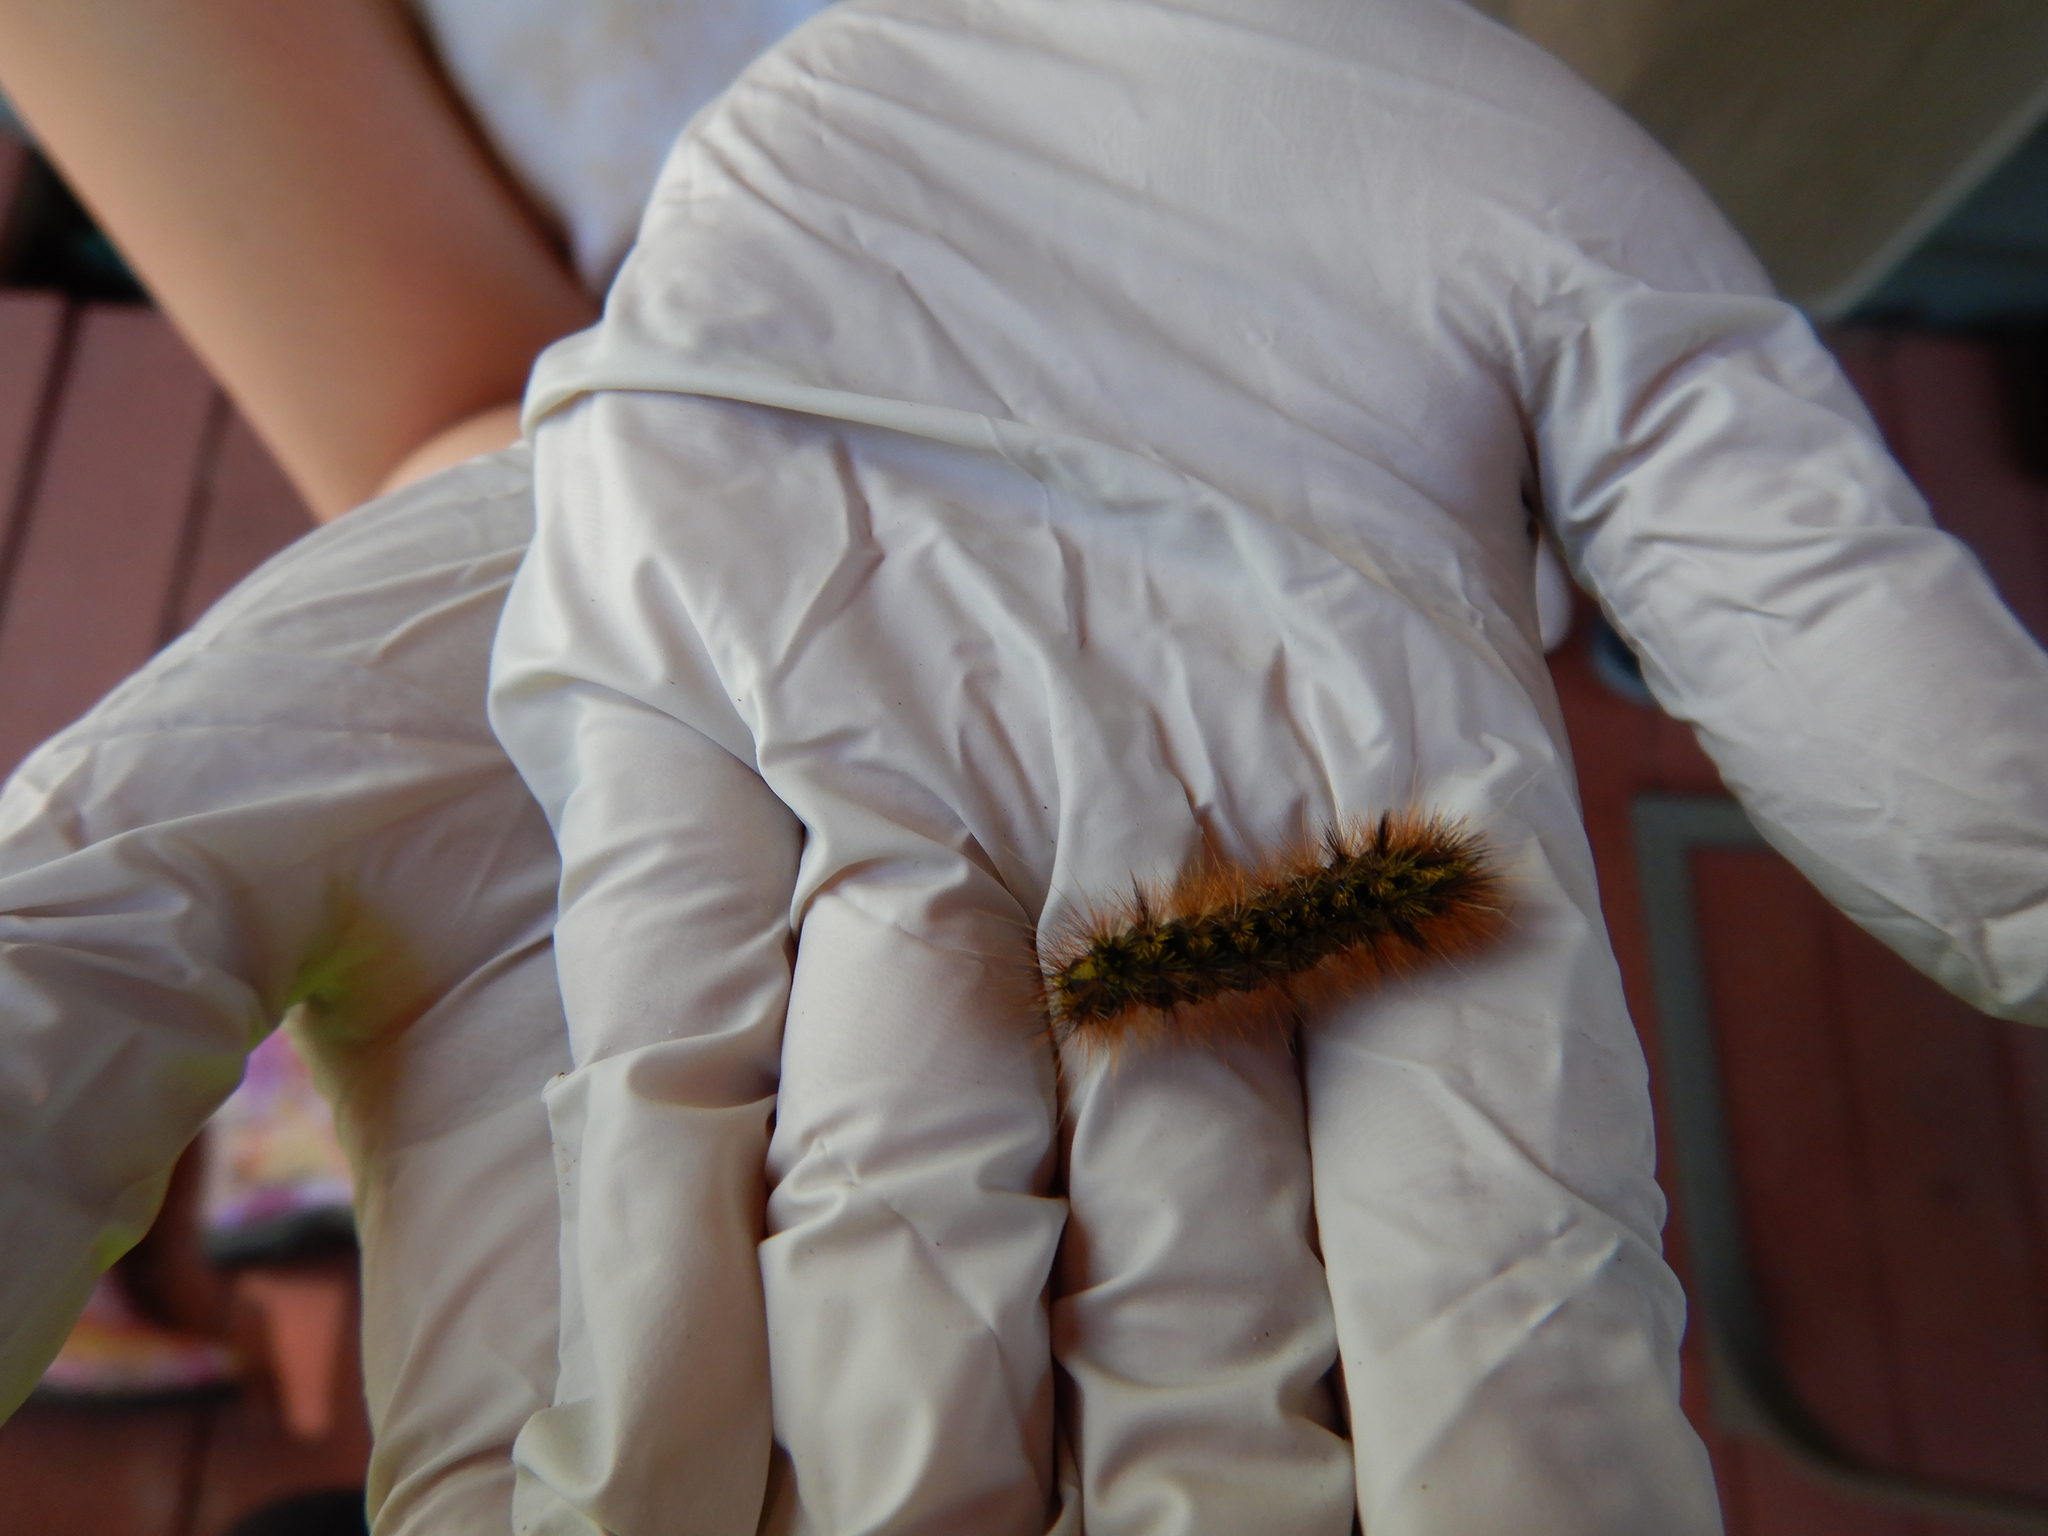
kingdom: Animalia
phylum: Arthropoda
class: Insecta
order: Lepidoptera
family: Erebidae
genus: Lophocampa
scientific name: Lophocampa argentata
